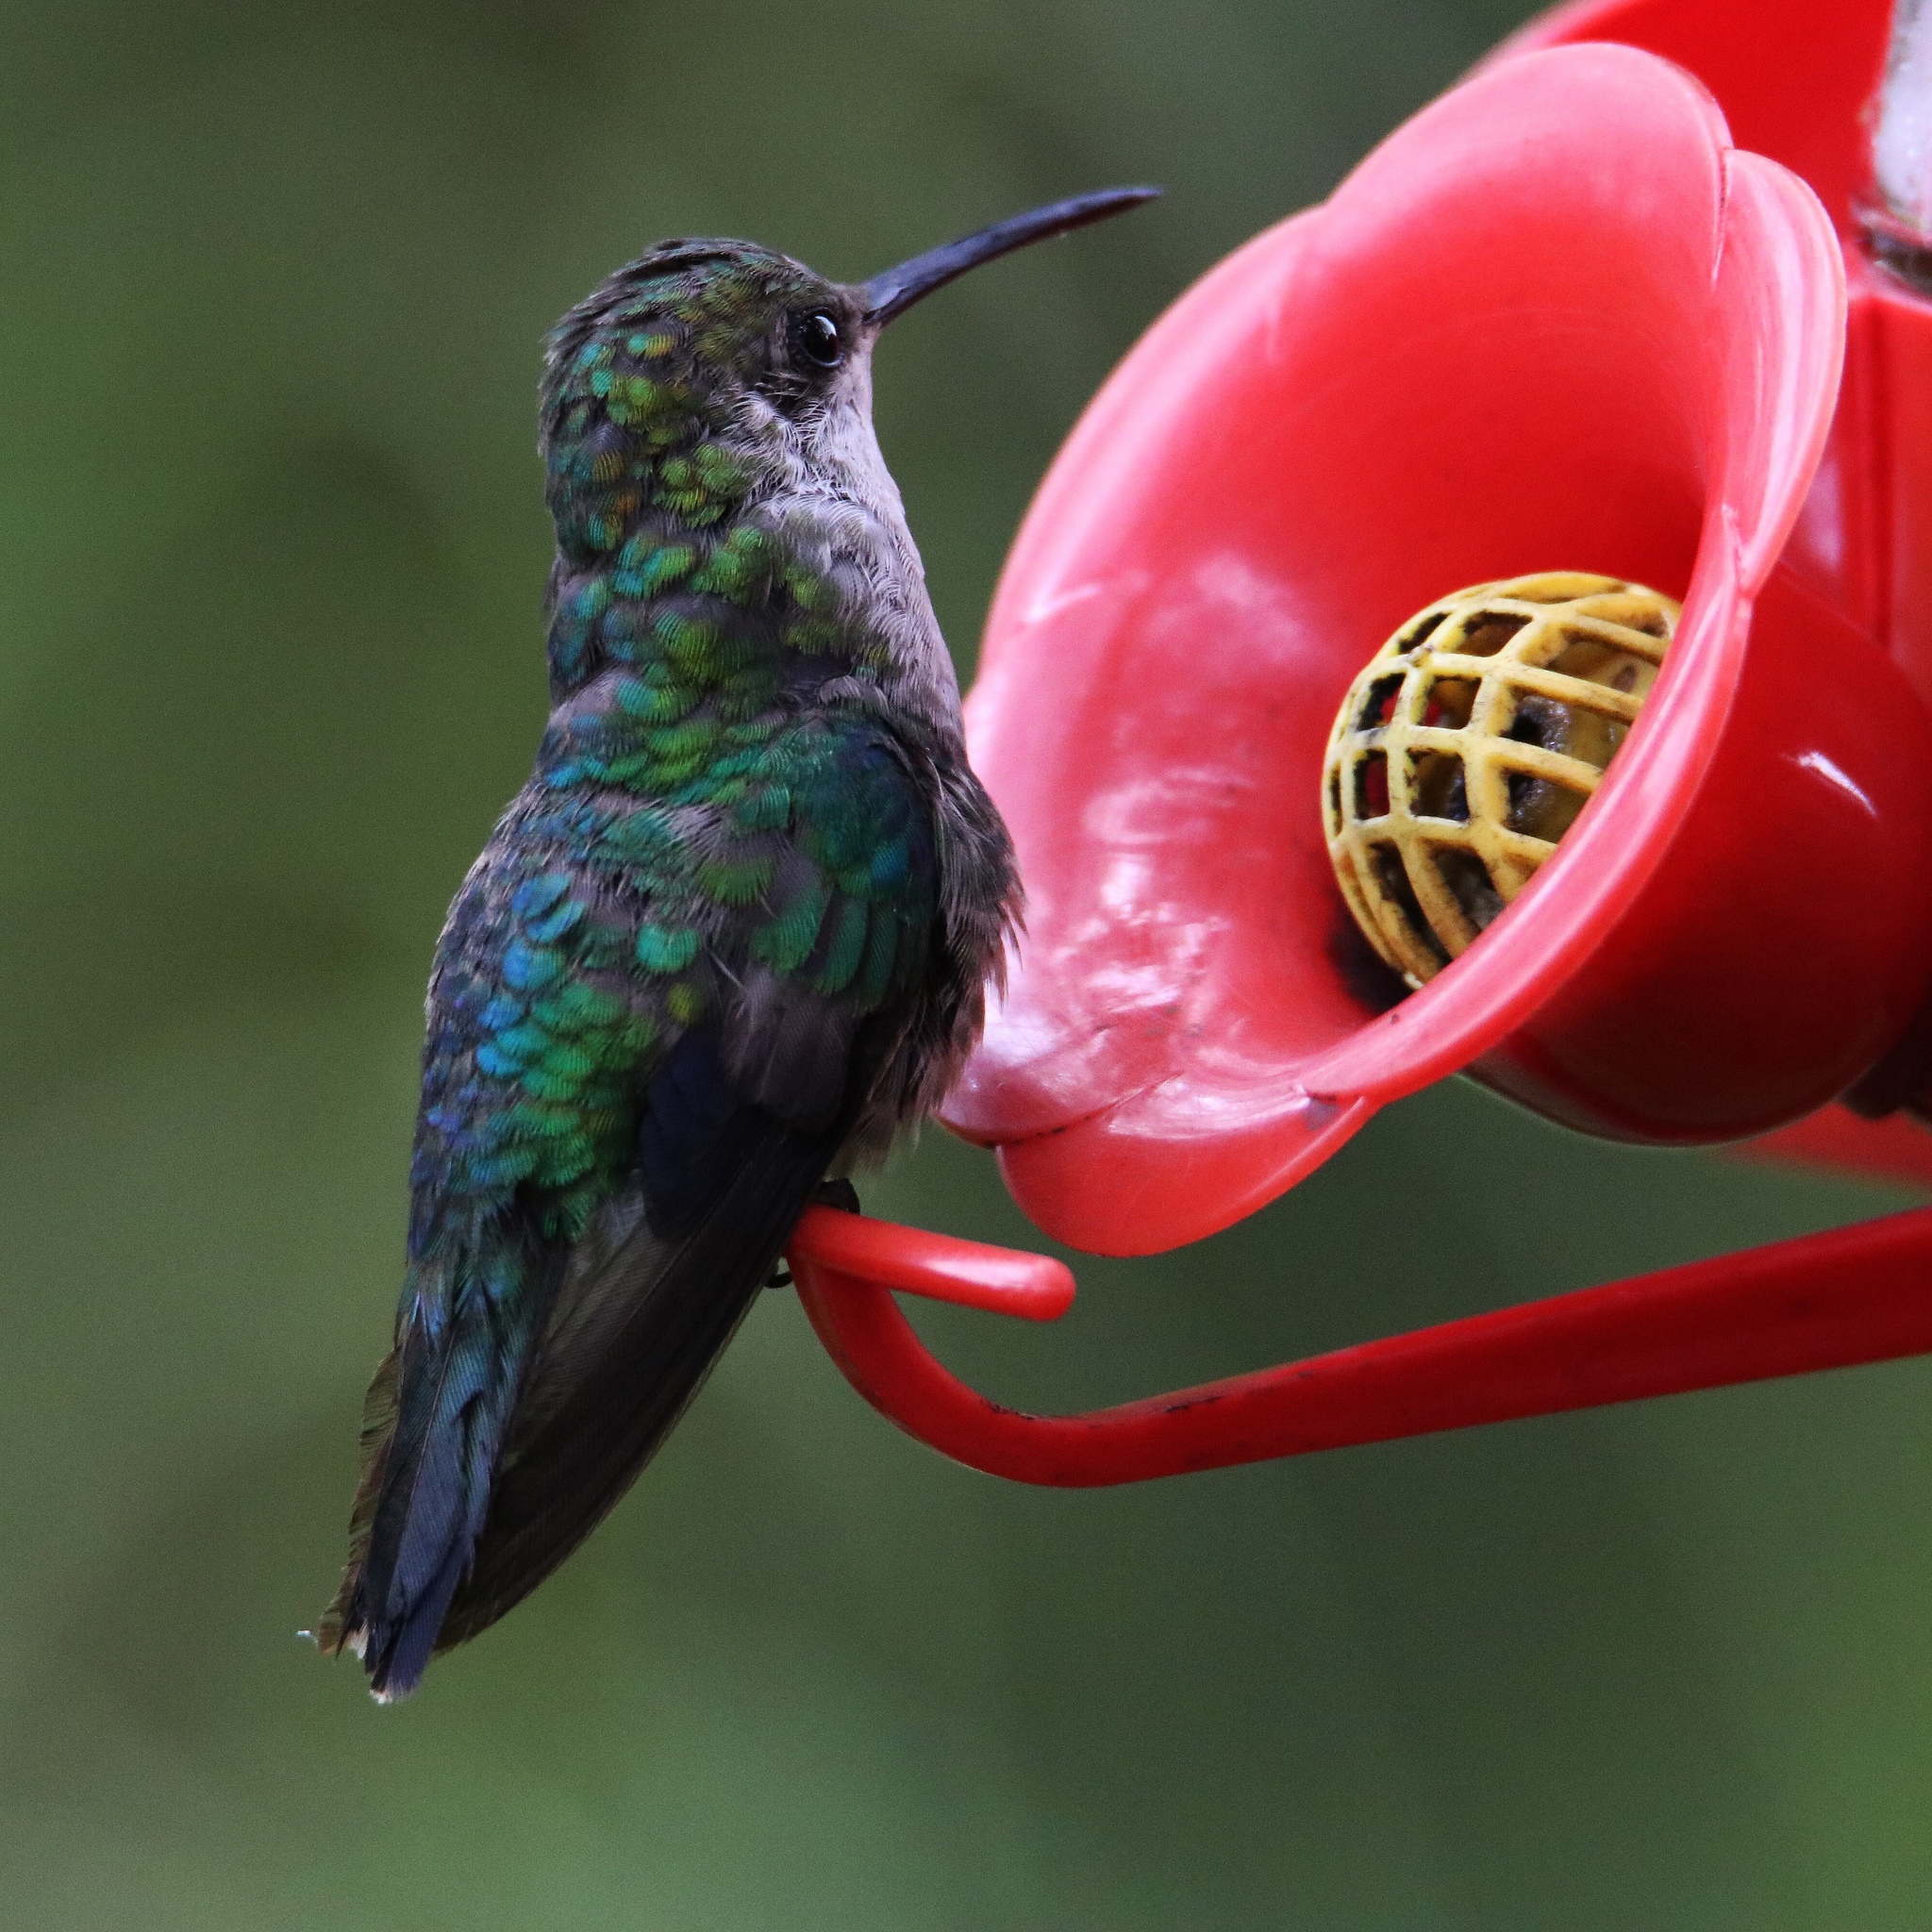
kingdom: Animalia
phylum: Chordata
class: Aves
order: Apodiformes
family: Trochilidae
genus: Thalurania
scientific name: Thalurania colombica
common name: Crowned woodnymph
